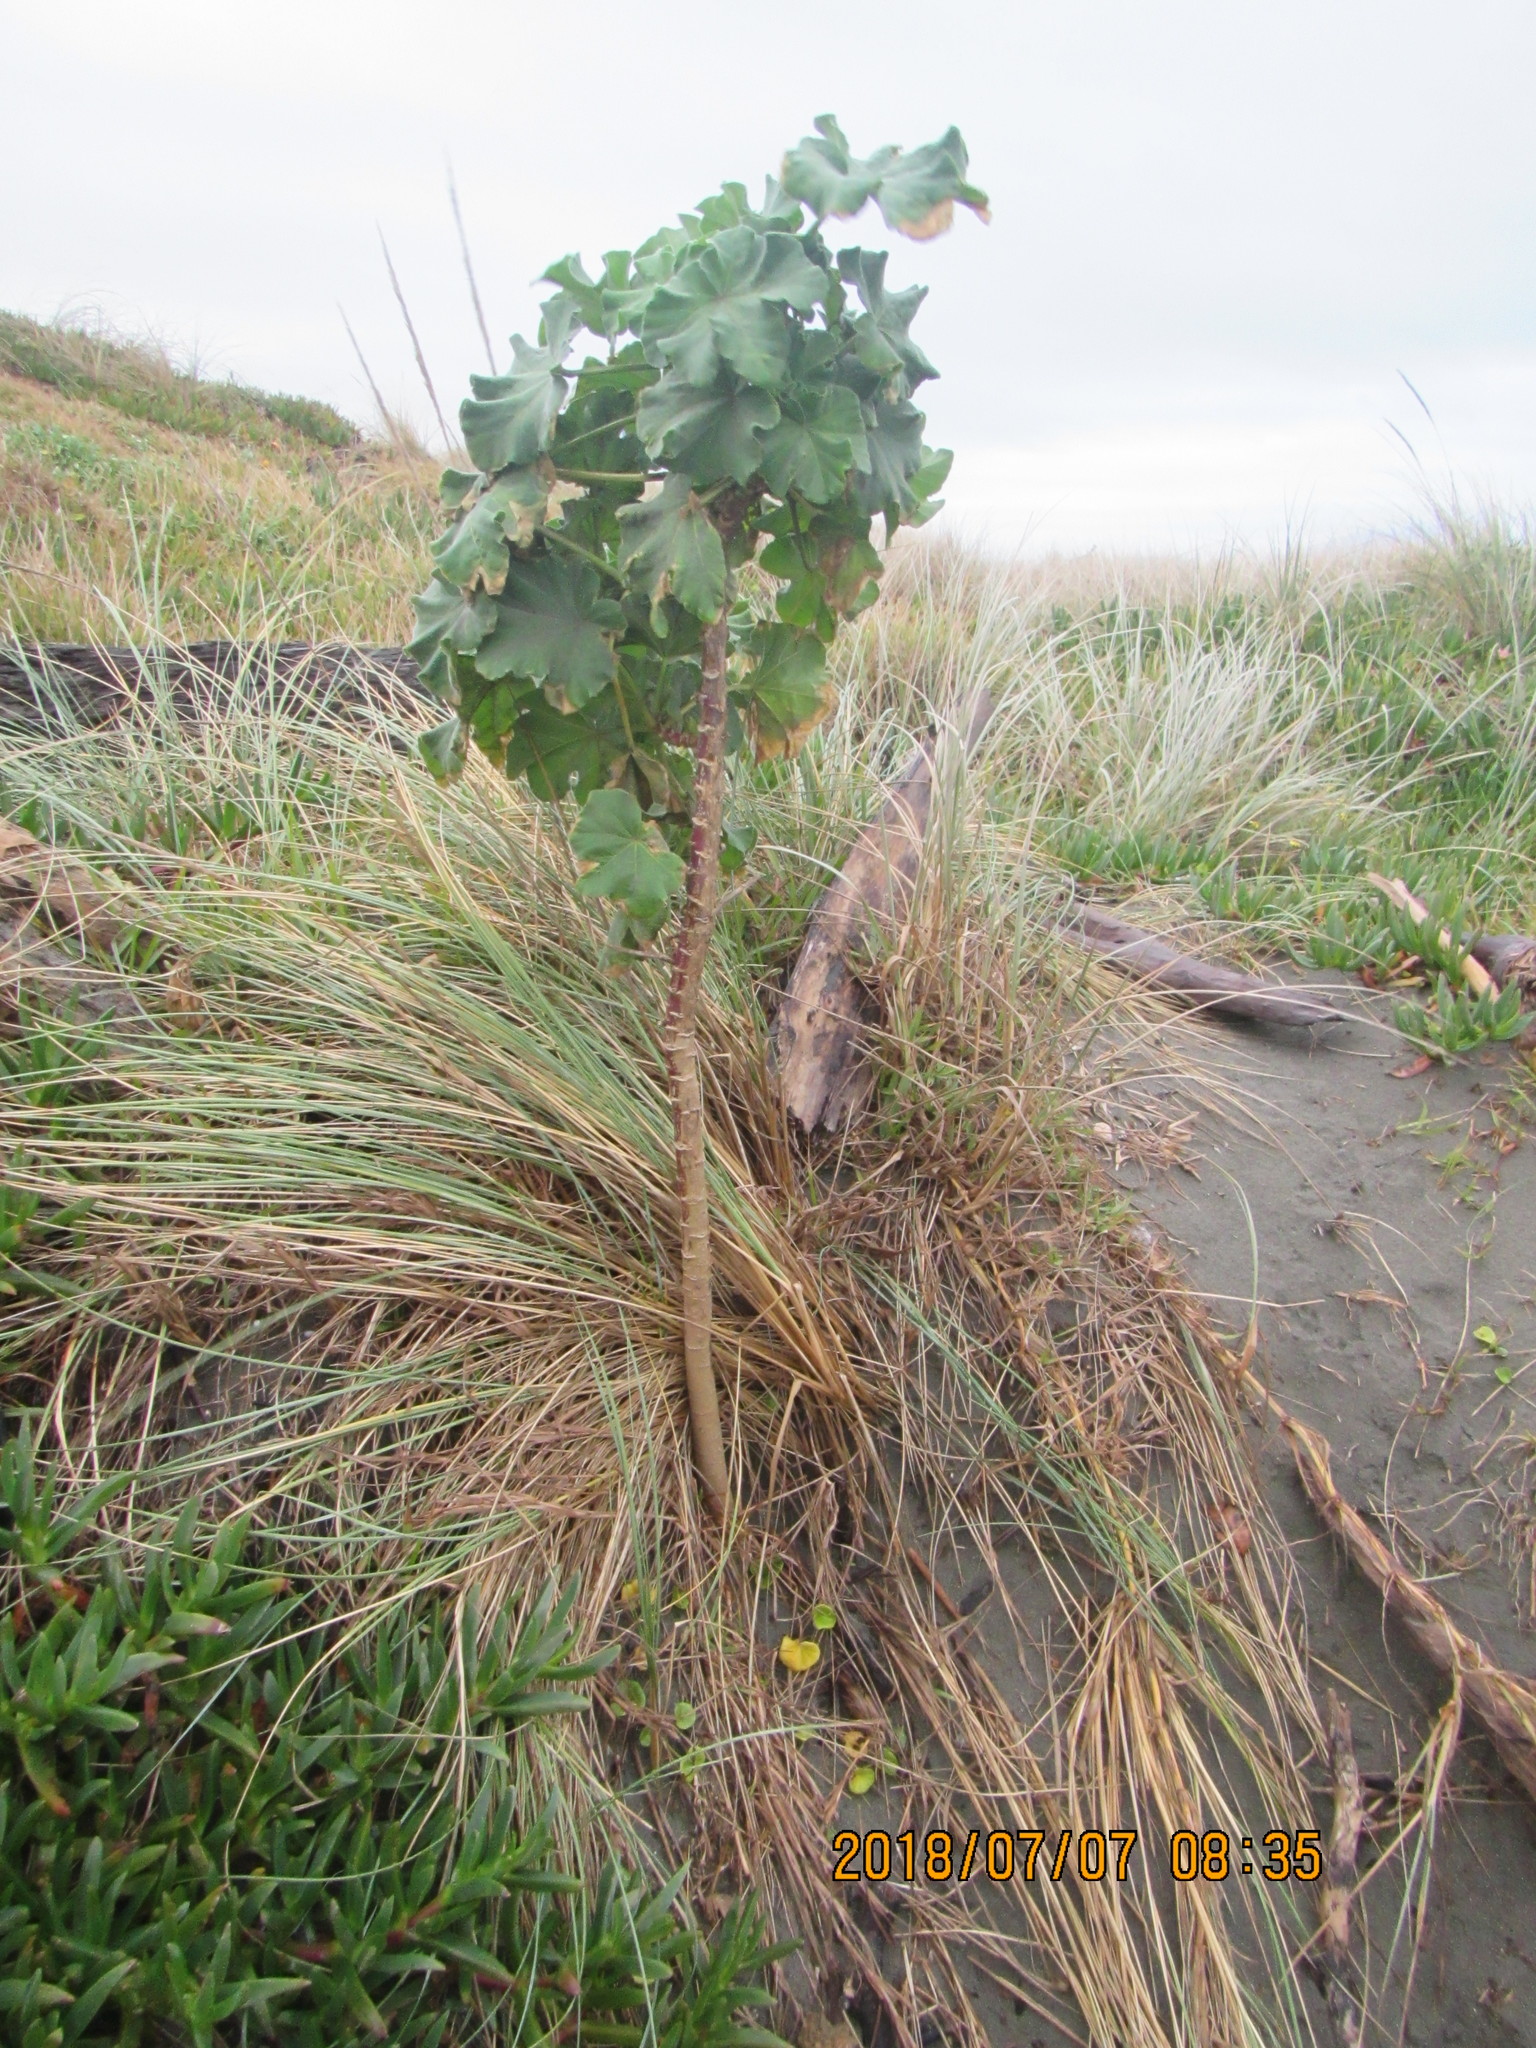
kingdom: Plantae
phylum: Tracheophyta
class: Magnoliopsida
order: Malvales
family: Malvaceae
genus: Malva
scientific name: Malva arborea
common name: Tree mallow
